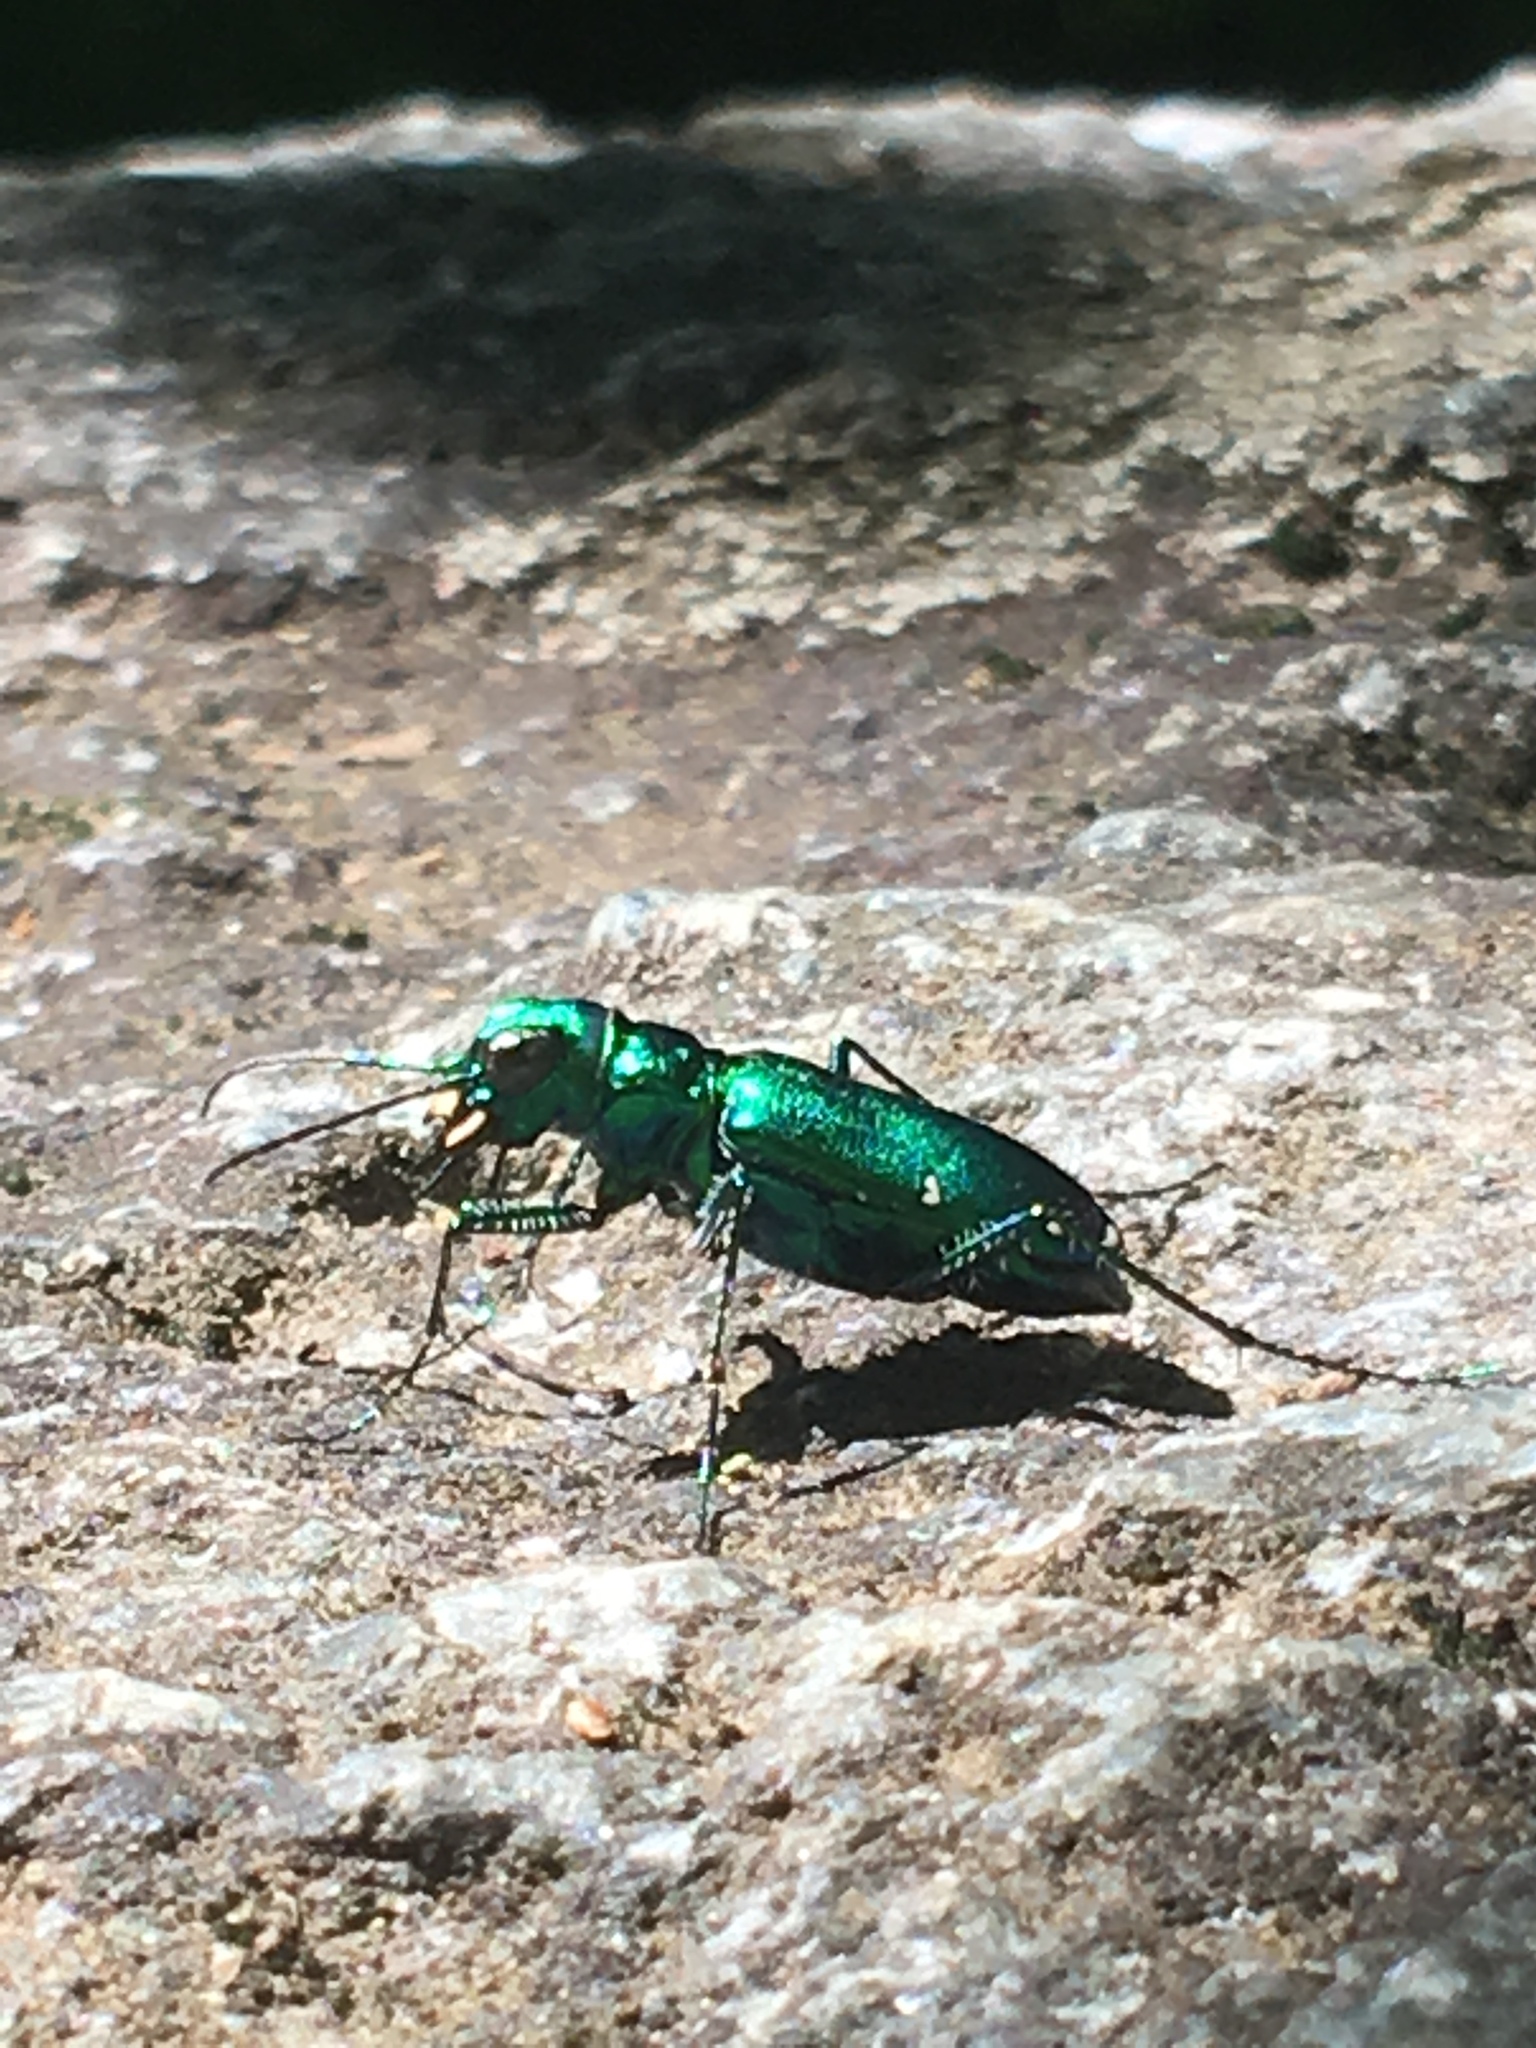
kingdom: Animalia
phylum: Arthropoda
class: Insecta
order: Coleoptera
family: Carabidae
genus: Cicindela
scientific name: Cicindela sexguttata
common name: Six-spotted tiger beetle
